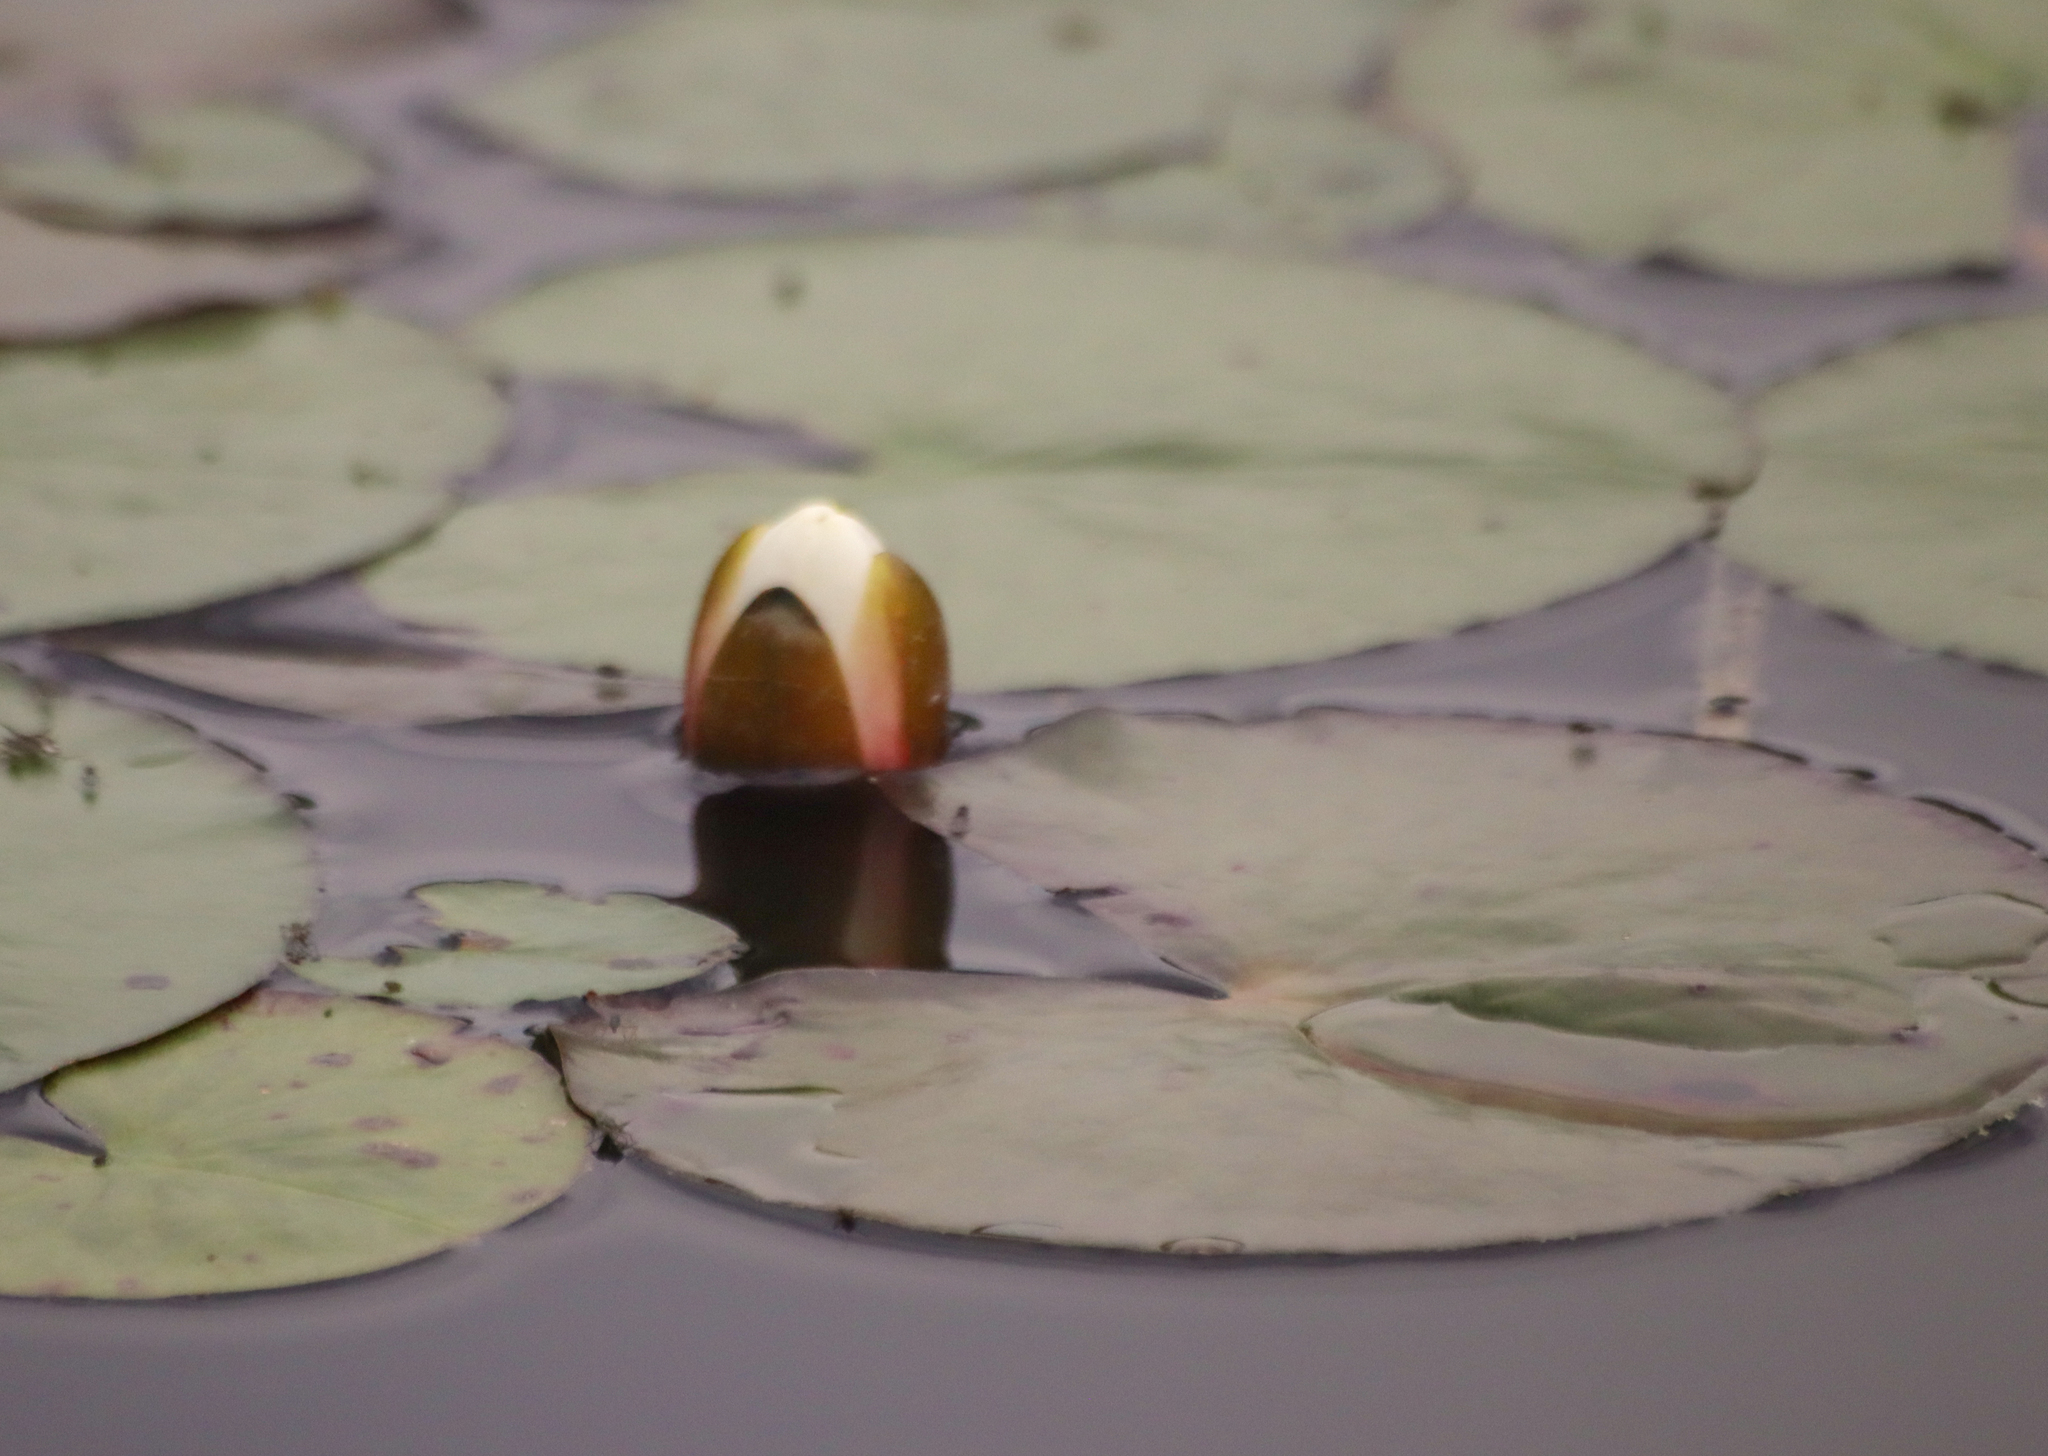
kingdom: Plantae
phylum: Tracheophyta
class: Magnoliopsida
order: Nymphaeales
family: Nymphaeaceae
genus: Nymphaea
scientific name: Nymphaea odorata
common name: Fragrant water-lily
